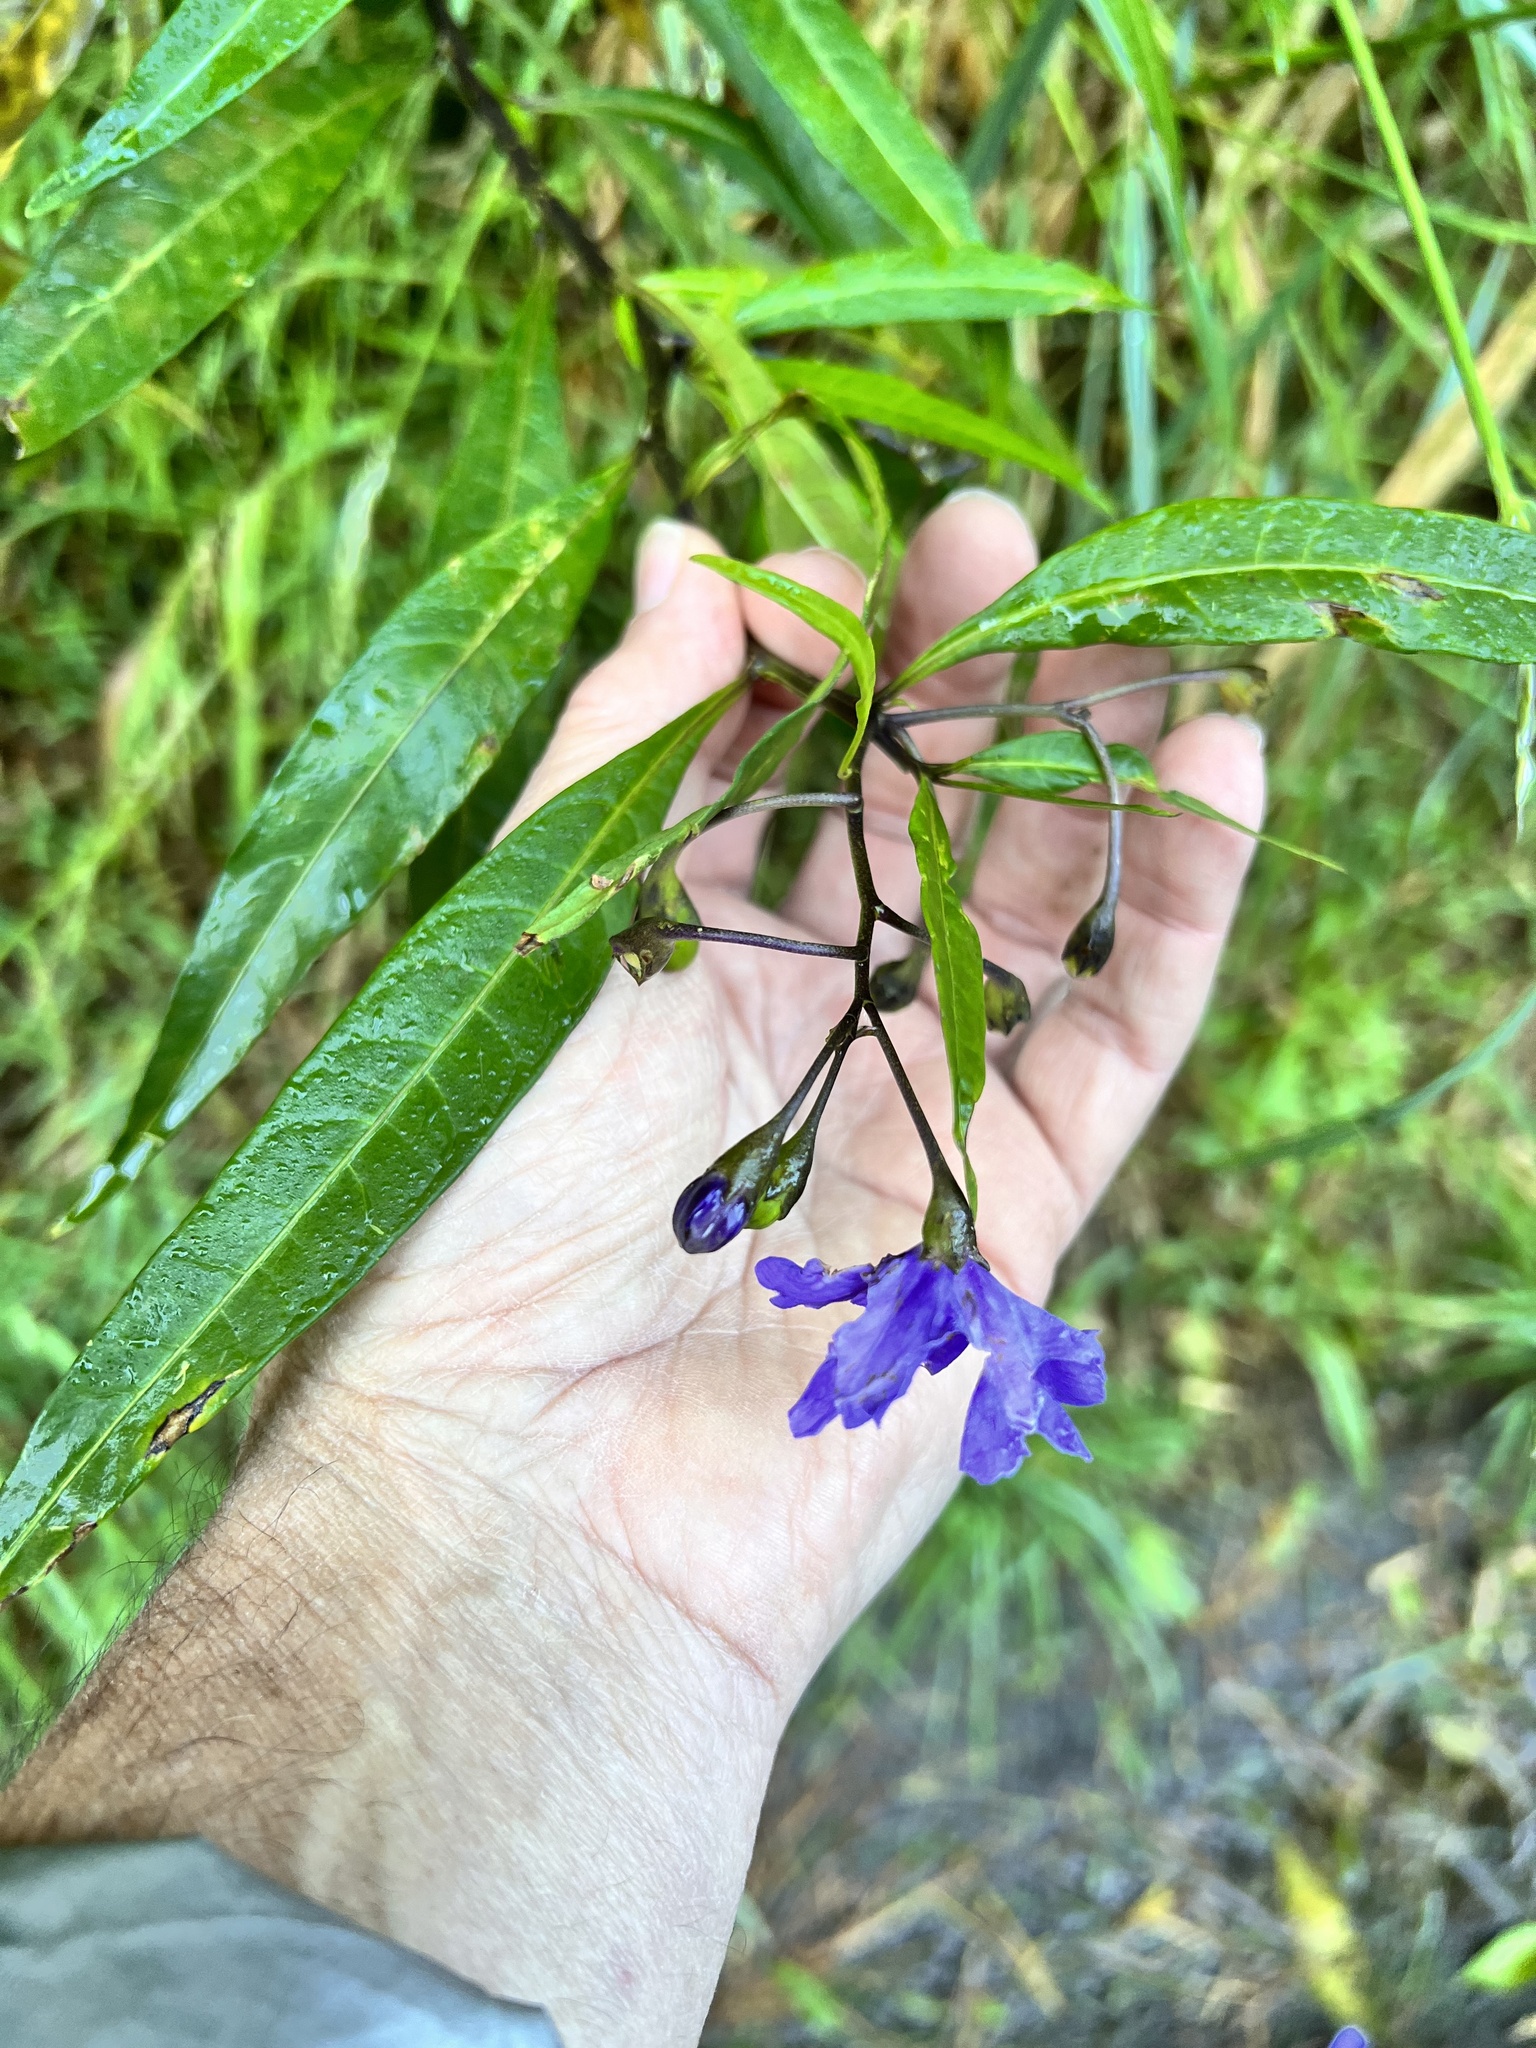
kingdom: Plantae
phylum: Tracheophyta
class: Magnoliopsida
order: Solanales
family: Solanaceae
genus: Solanum
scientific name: Solanum laciniatum
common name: Kangaroo-apple
